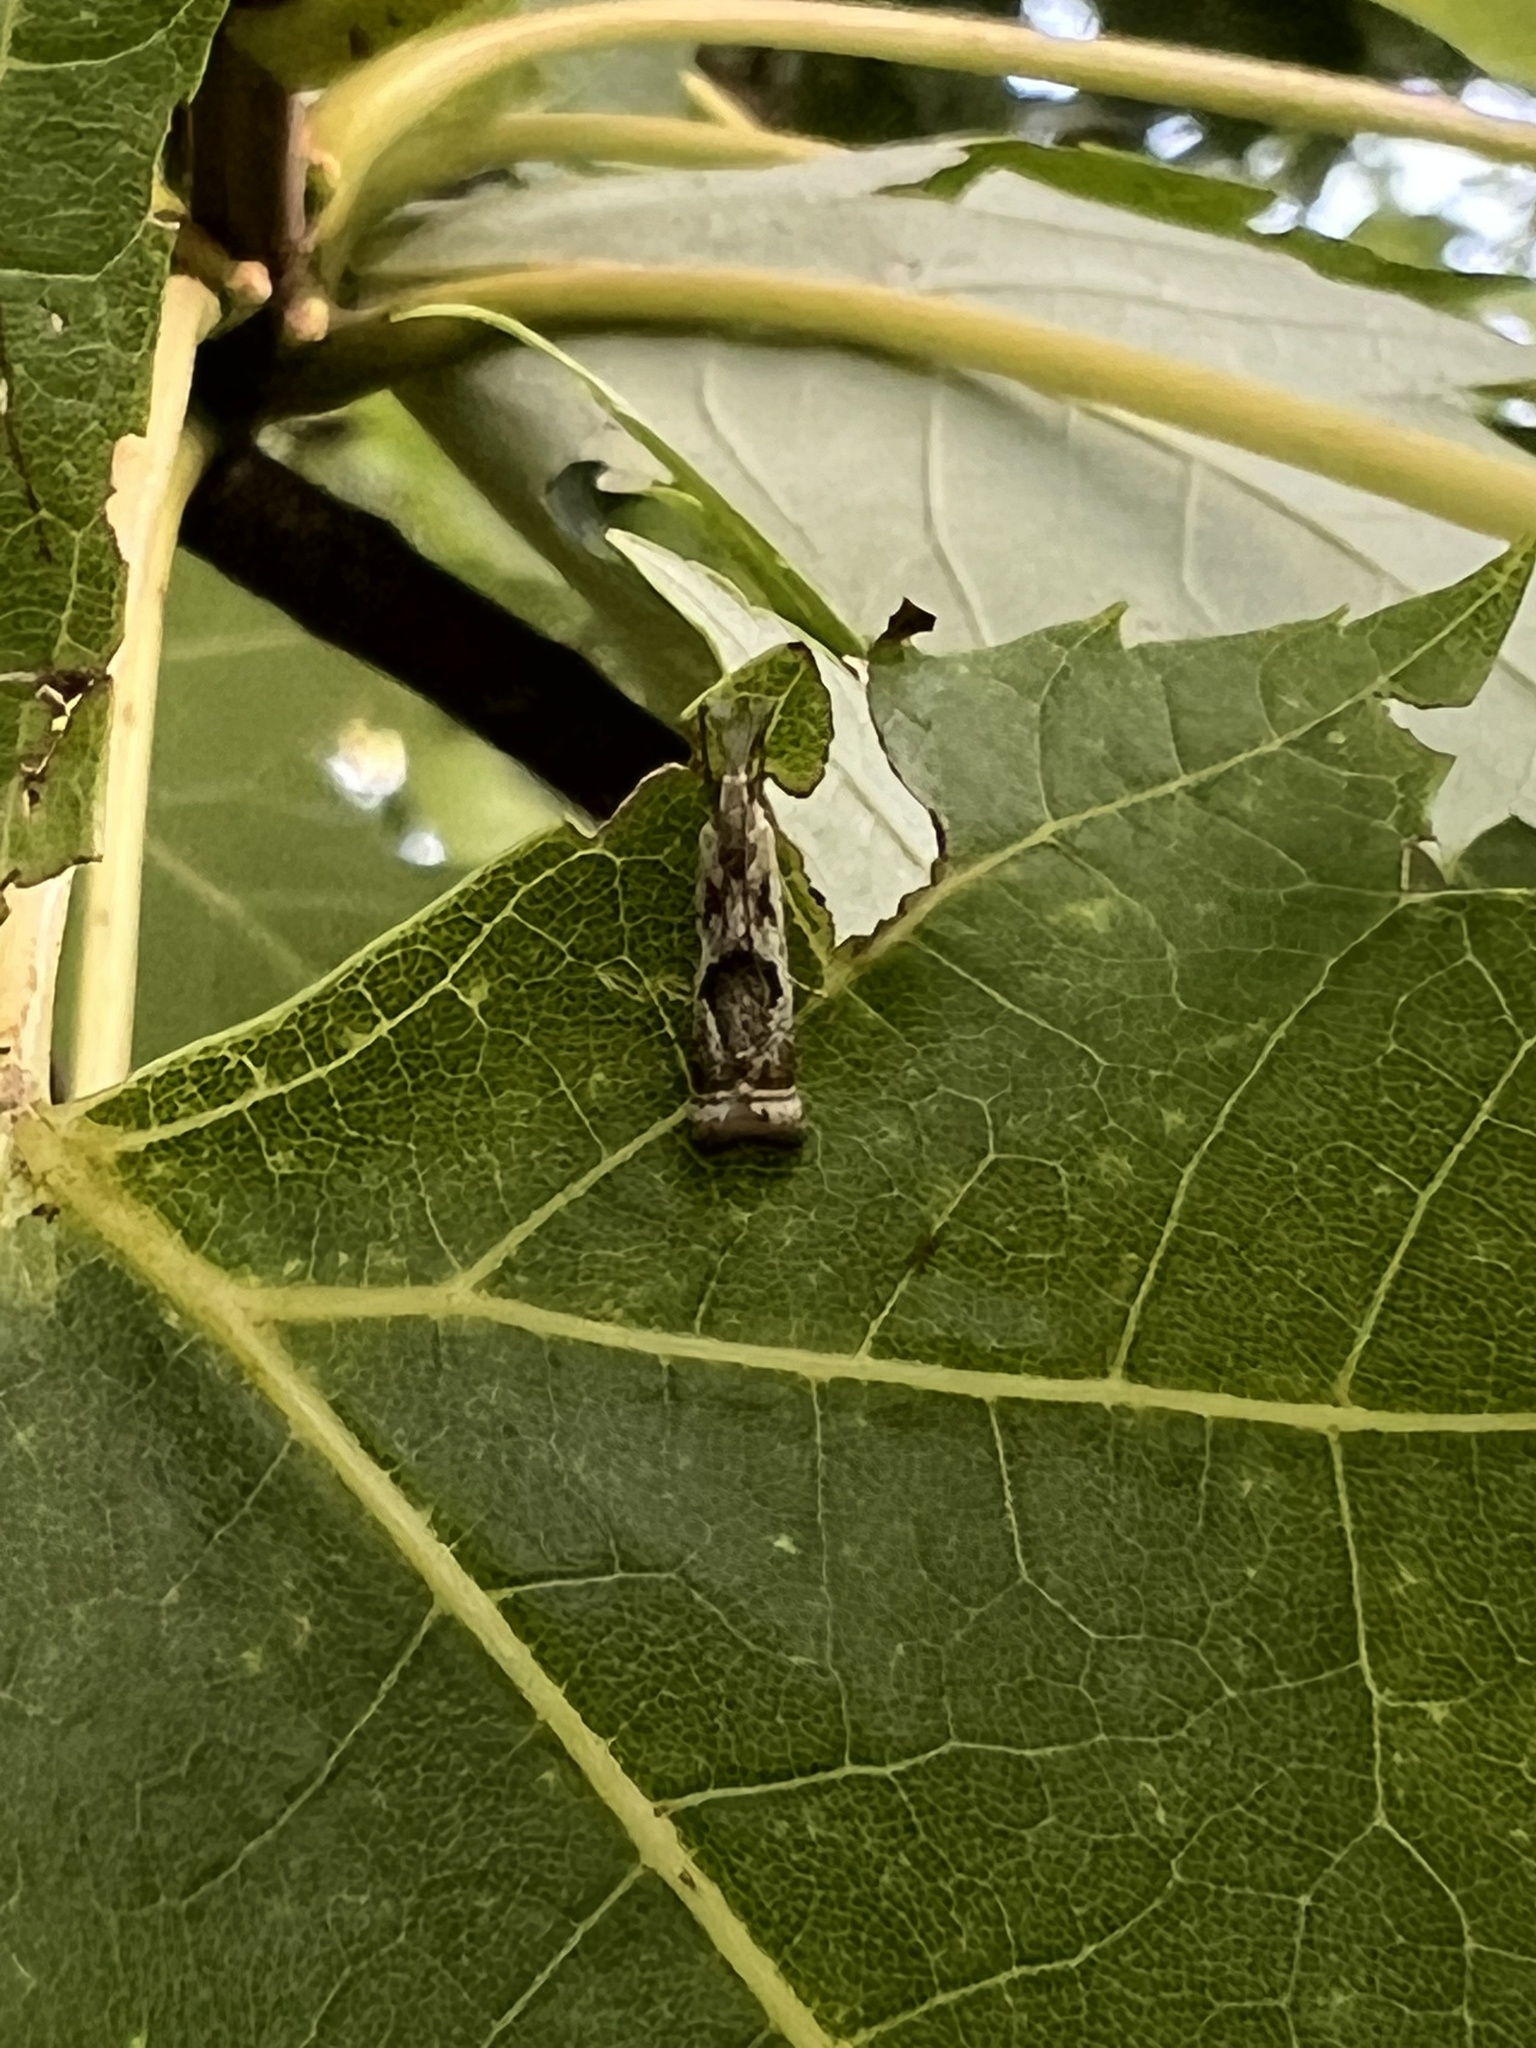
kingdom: Animalia
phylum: Arthropoda
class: Insecta
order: Lepidoptera
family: Crambidae
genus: Microcrambus
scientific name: Microcrambus elegans
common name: Elegant grass-veneer
